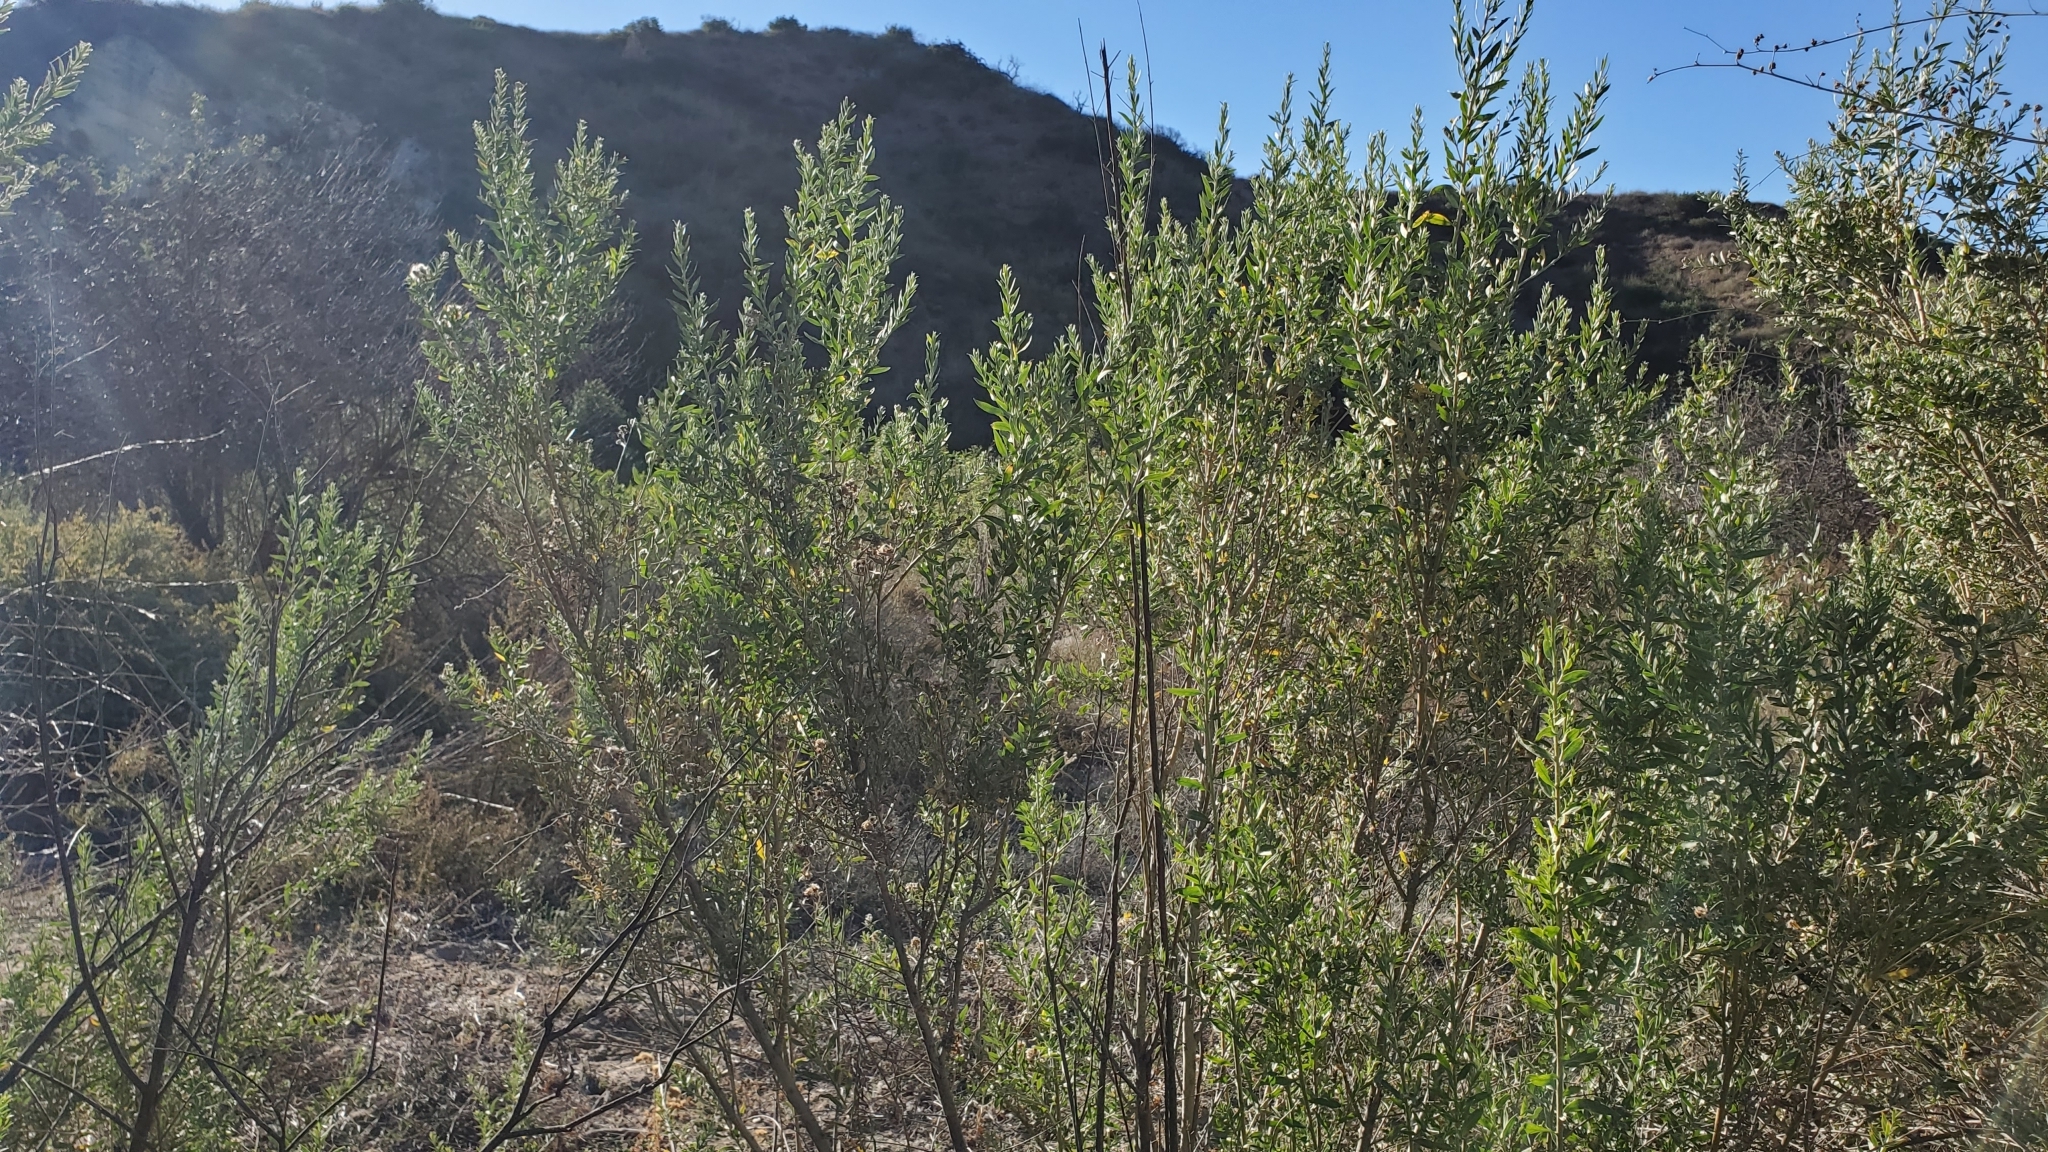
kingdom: Plantae
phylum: Tracheophyta
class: Magnoliopsida
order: Asterales
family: Asteraceae
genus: Pluchea
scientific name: Pluchea sericea
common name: Arrow-weed
